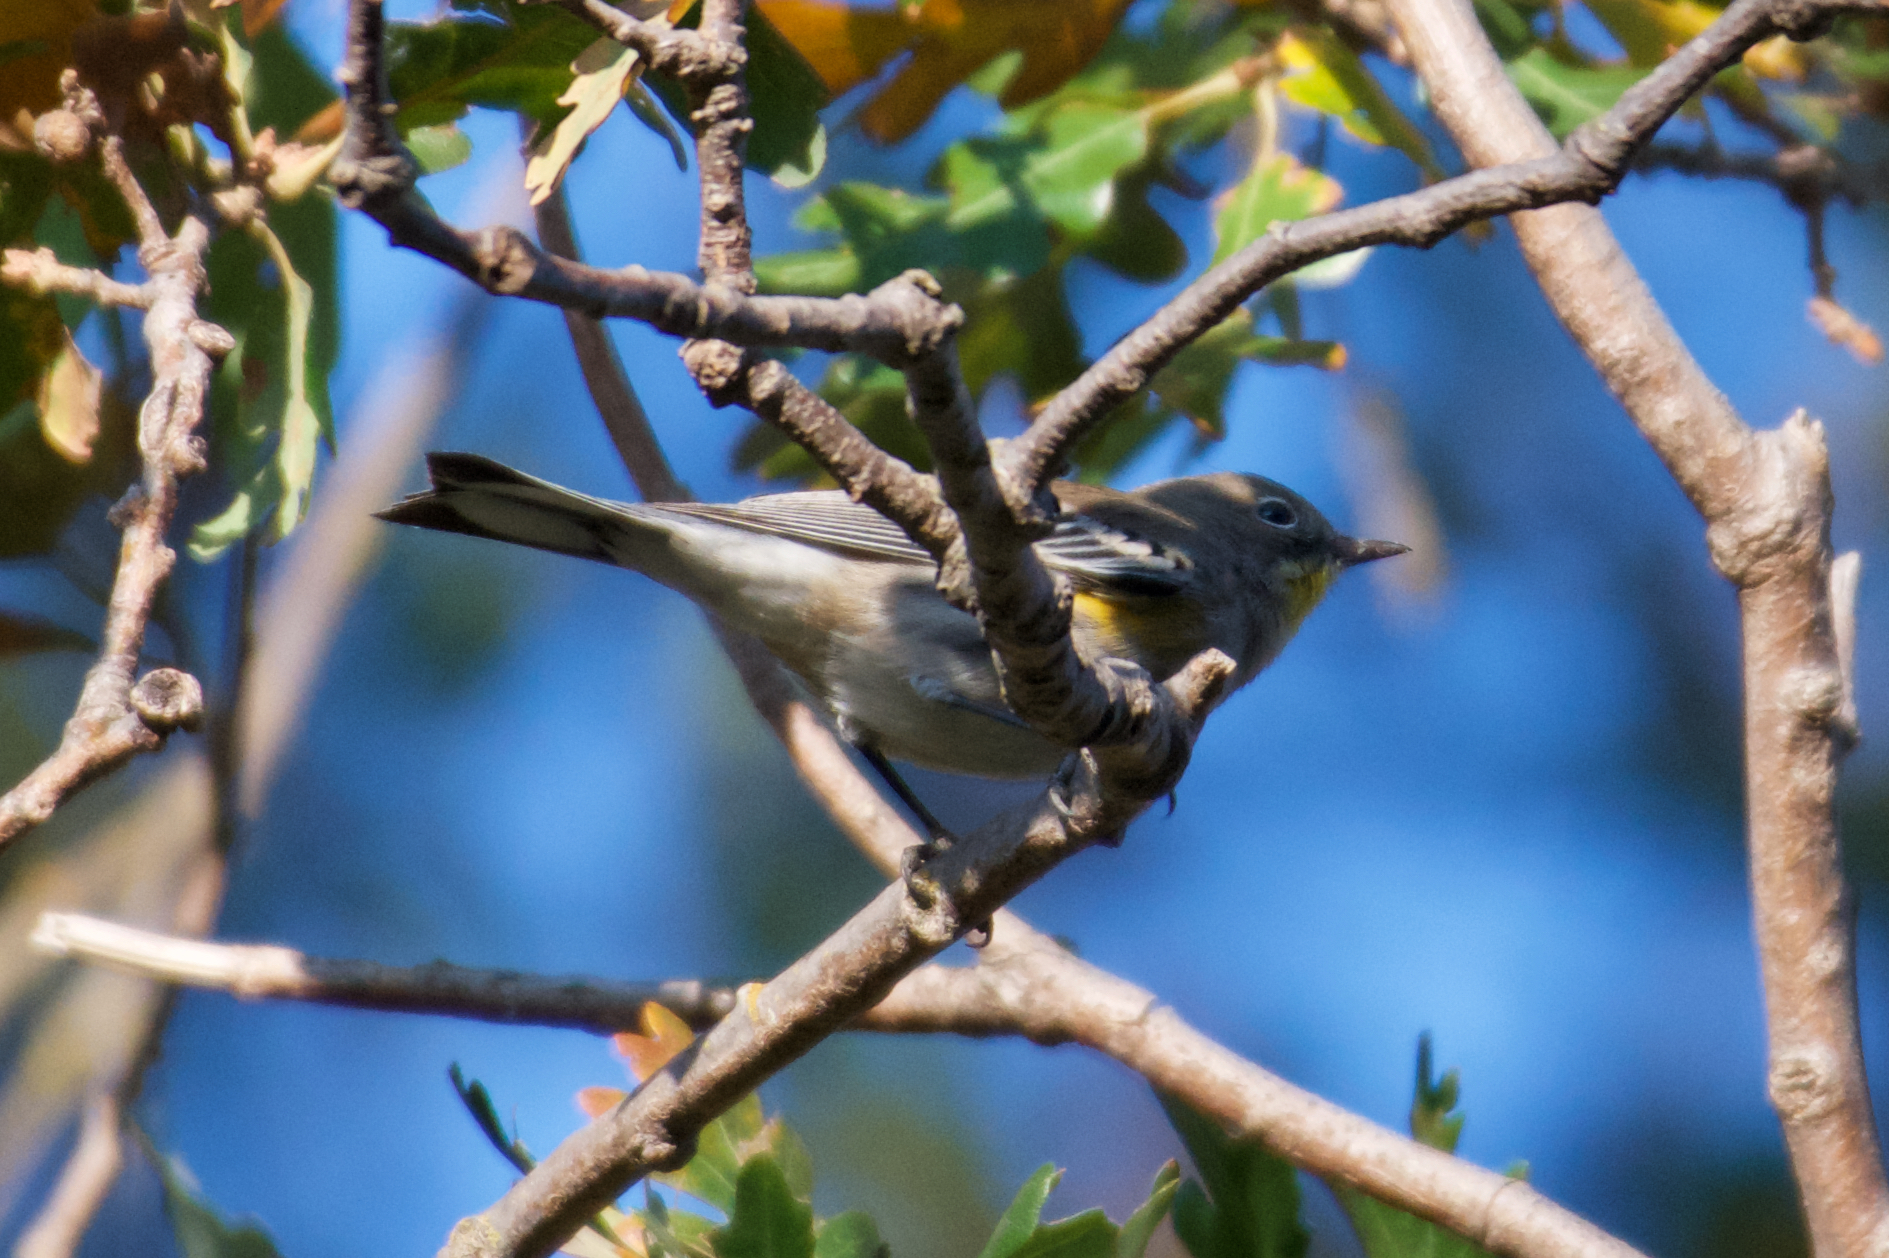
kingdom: Animalia
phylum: Chordata
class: Aves
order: Passeriformes
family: Parulidae
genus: Setophaga
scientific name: Setophaga coronata
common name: Myrtle warbler
